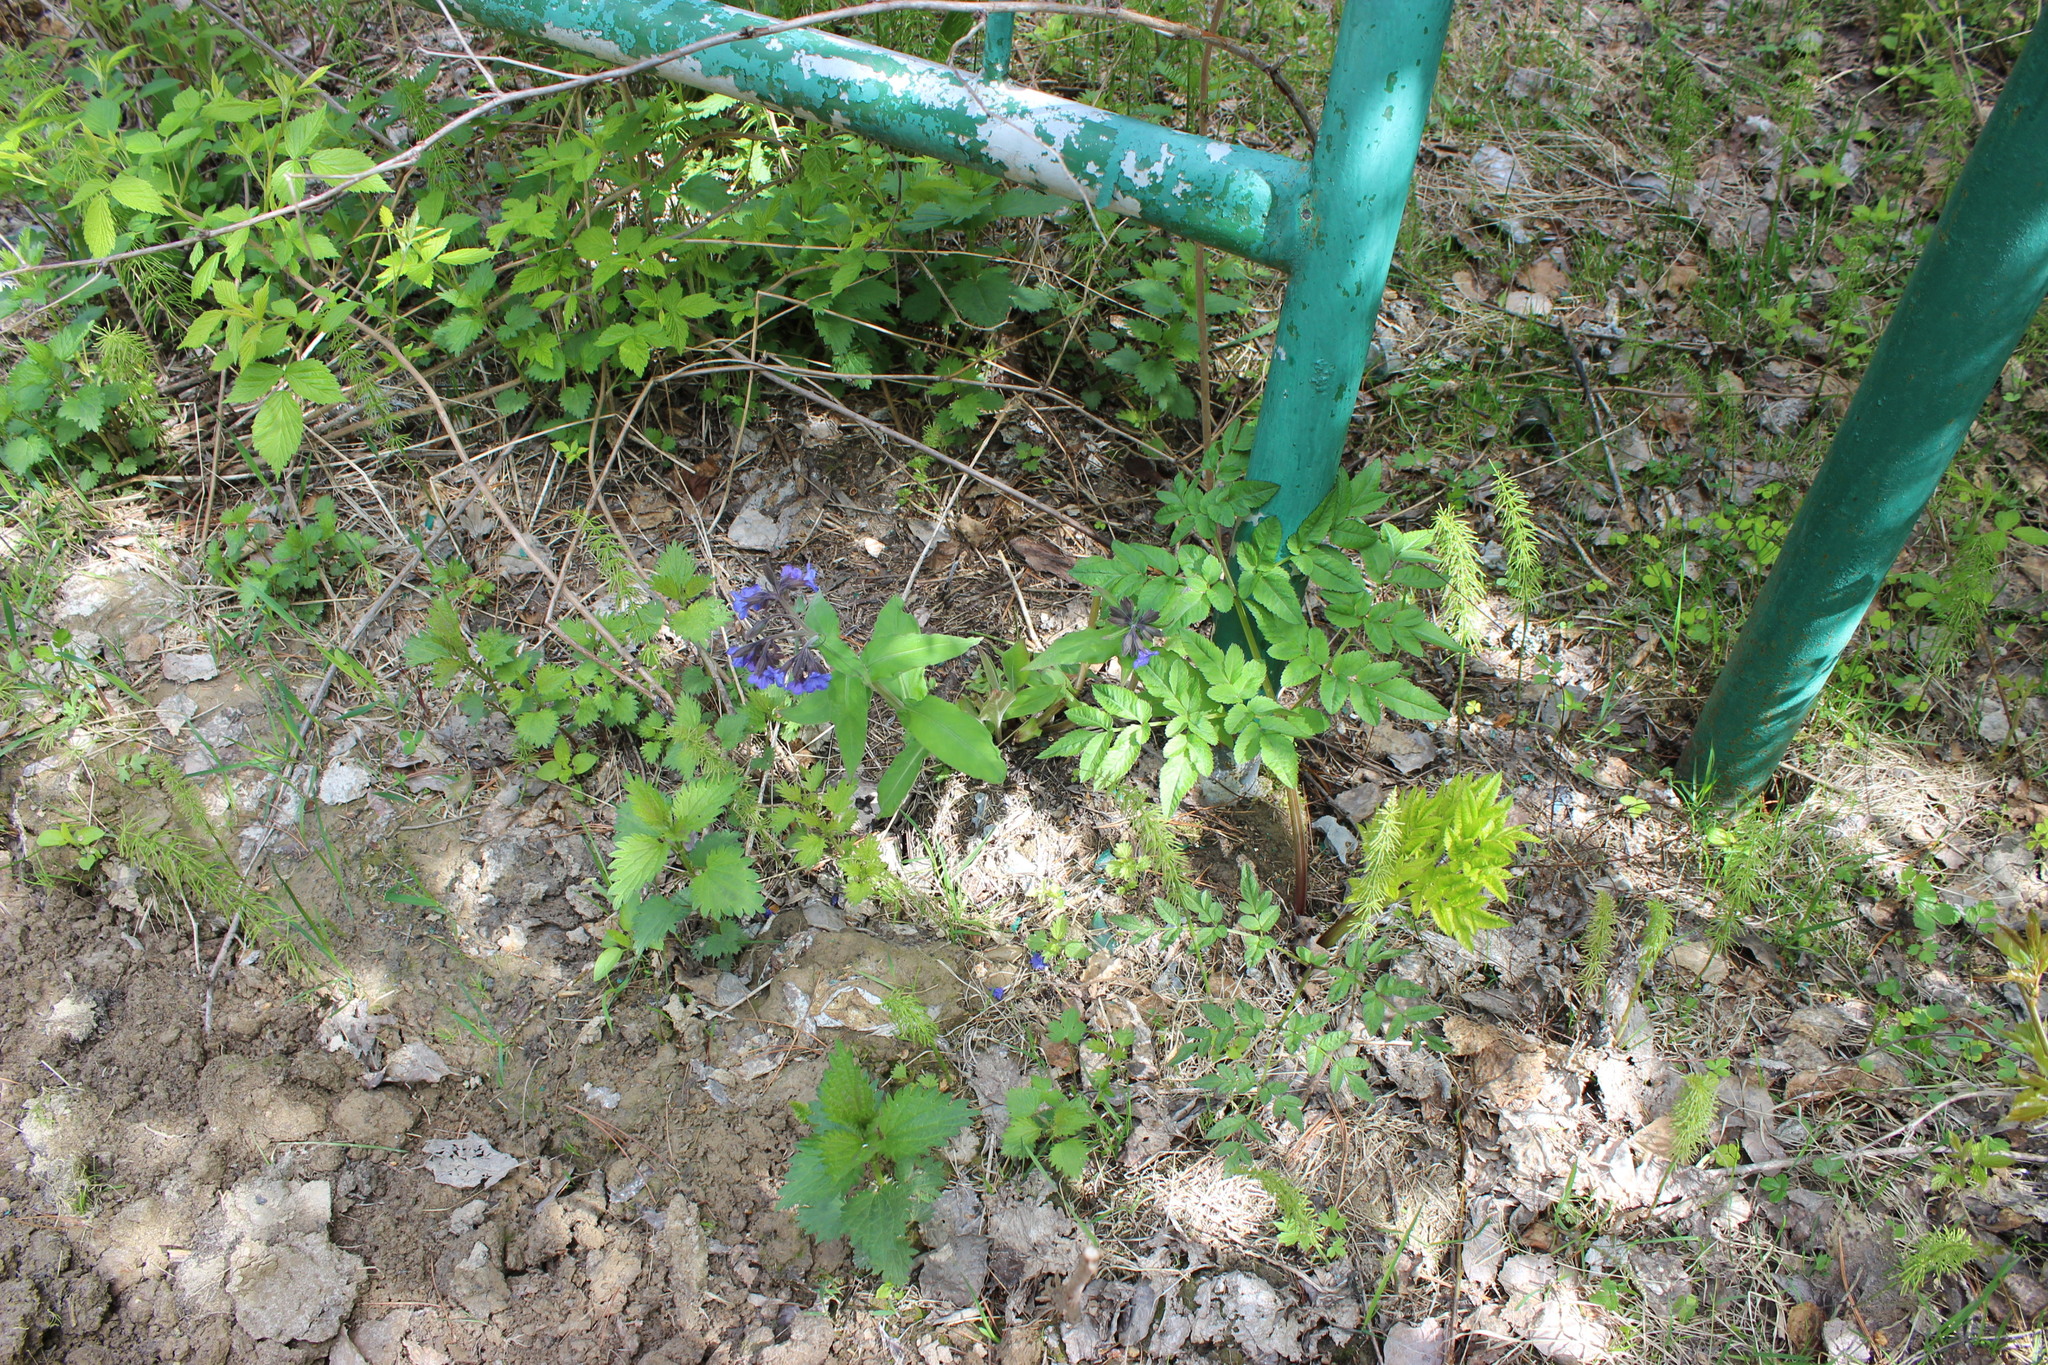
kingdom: Plantae
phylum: Tracheophyta
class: Magnoliopsida
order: Apiales
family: Apiaceae
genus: Angelica
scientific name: Angelica sylvestris
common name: Wild angelica
